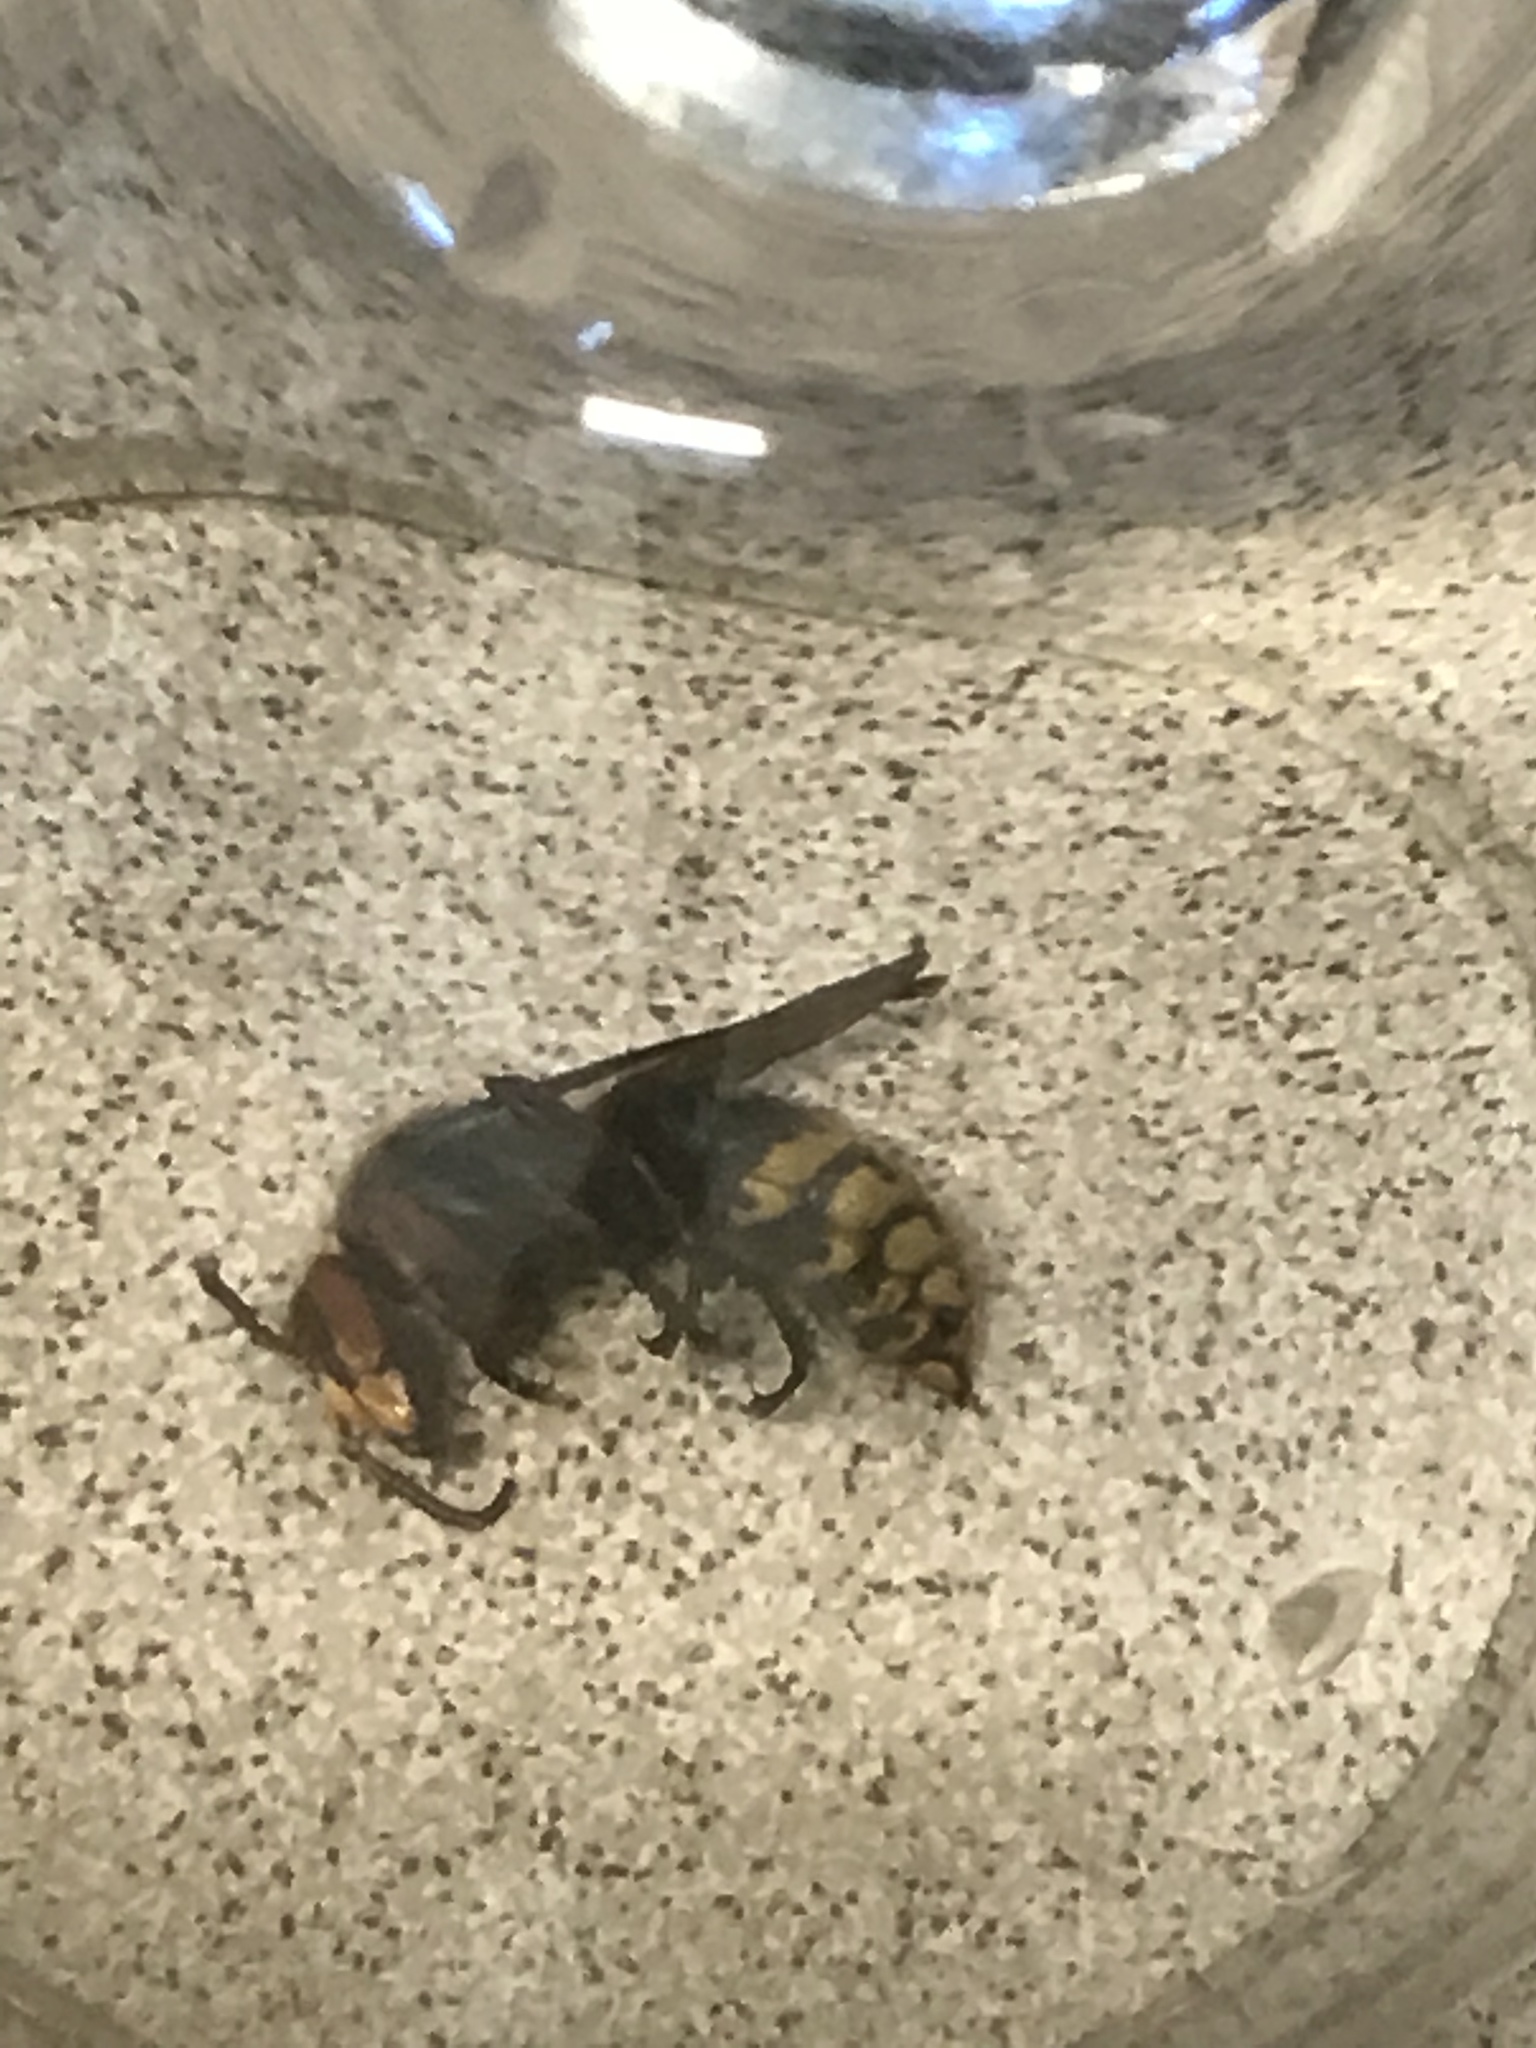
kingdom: Animalia
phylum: Arthropoda
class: Insecta
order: Hymenoptera
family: Vespidae
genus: Vespa
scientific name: Vespa crabro
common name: Hornet
